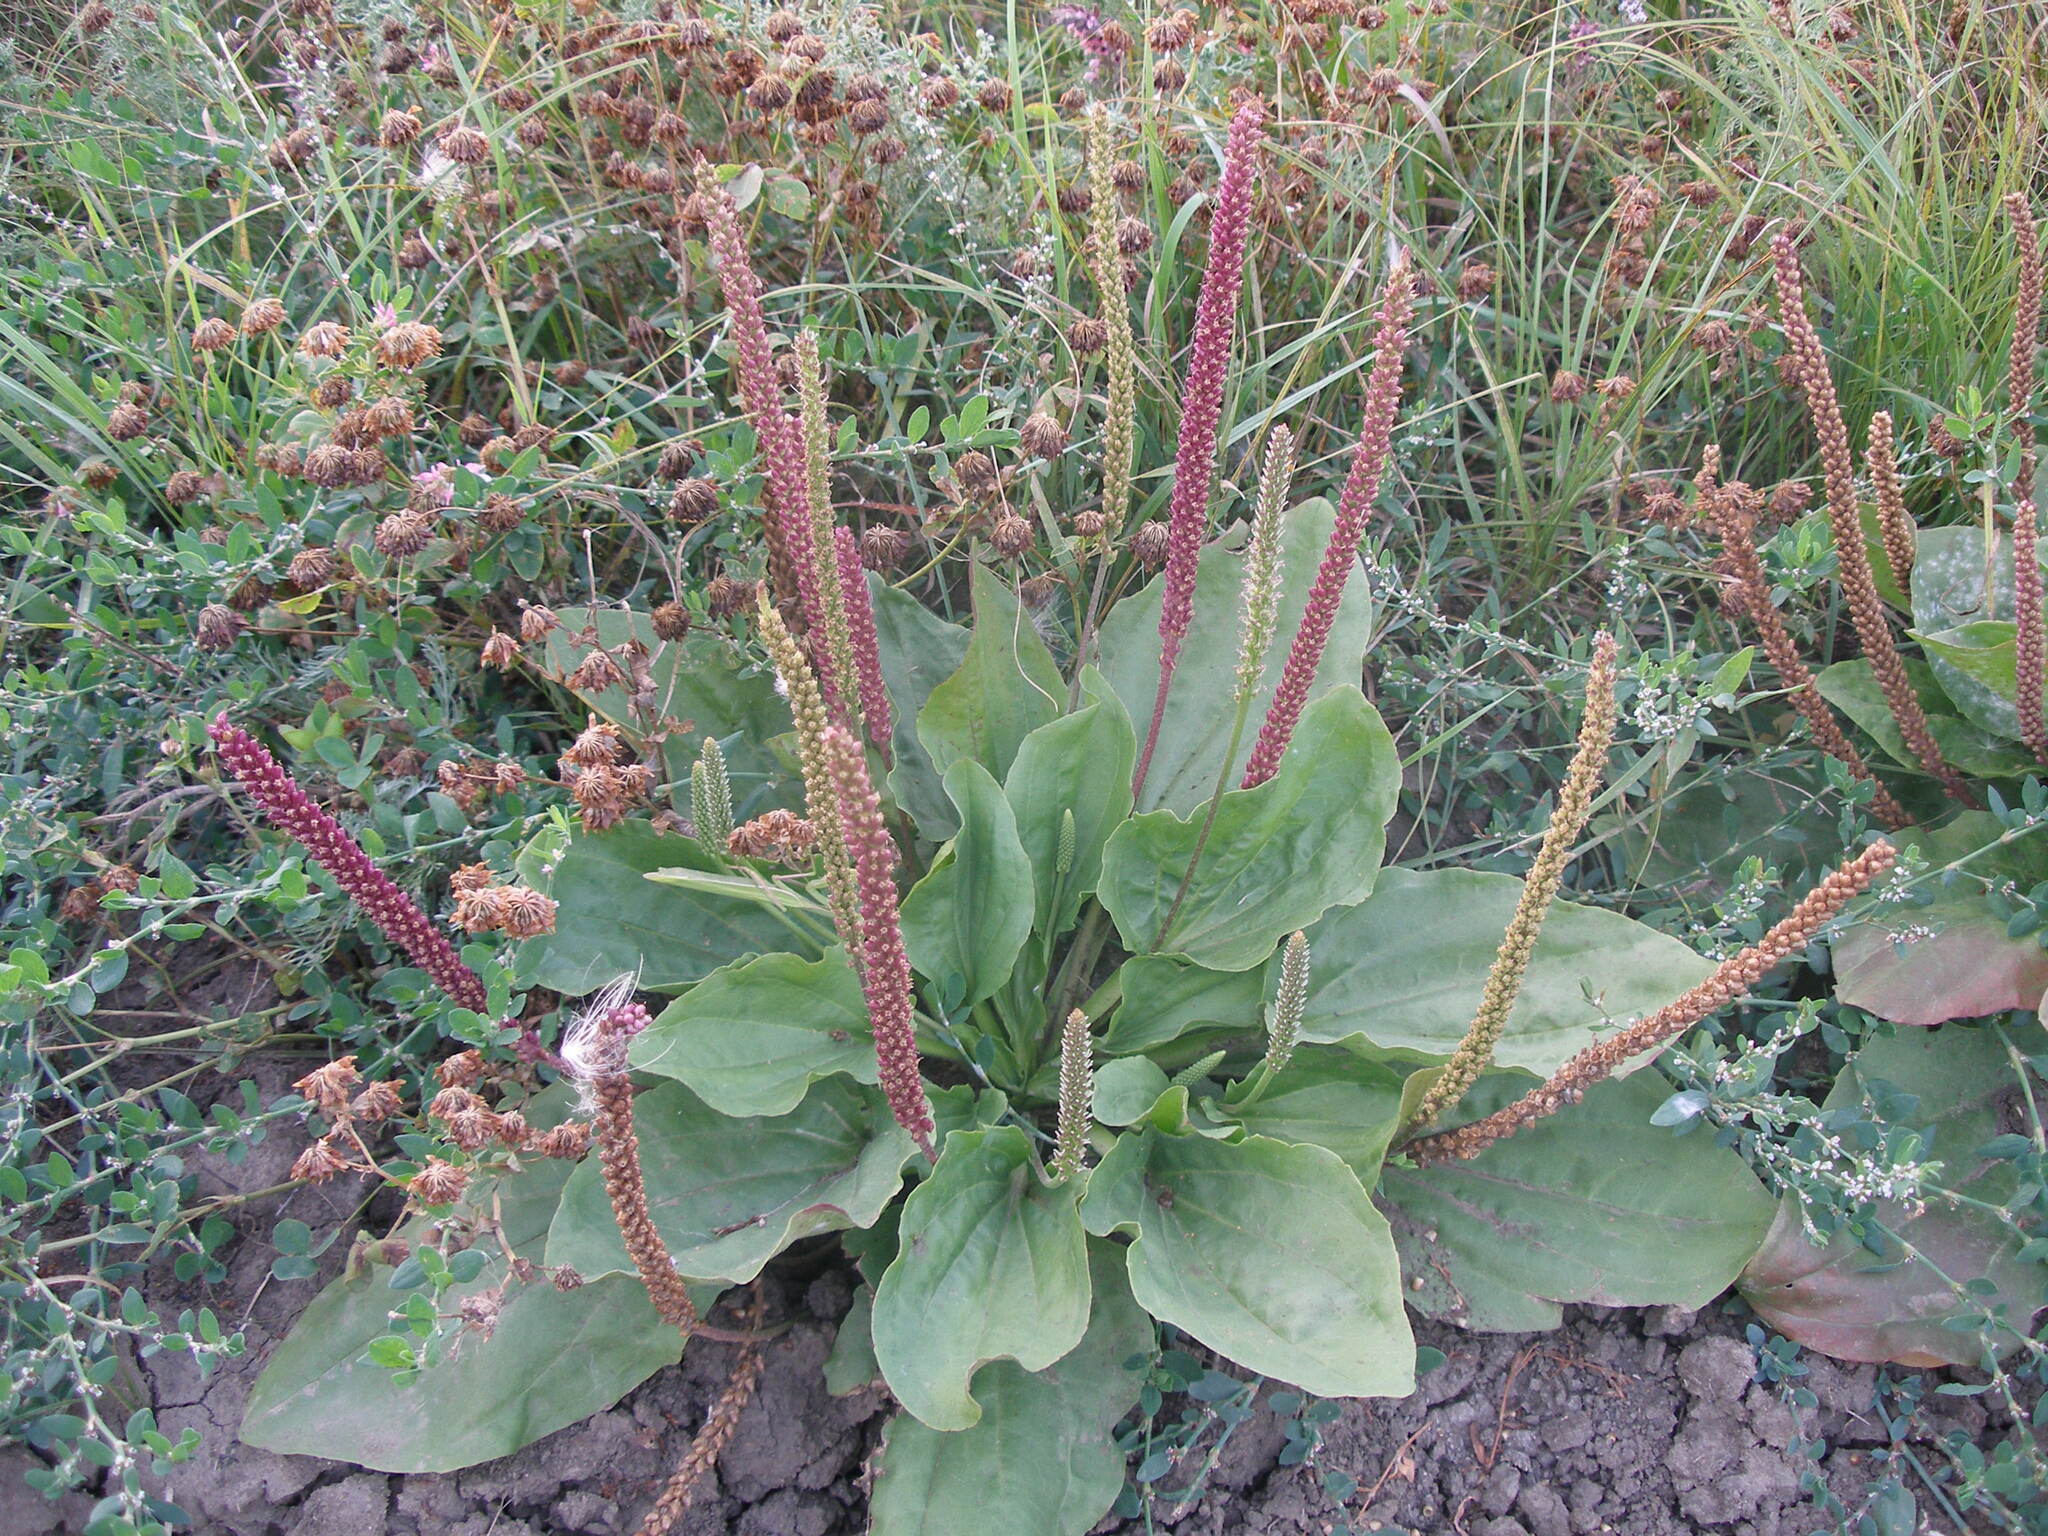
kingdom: Plantae
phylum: Tracheophyta
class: Magnoliopsida
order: Lamiales
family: Plantaginaceae
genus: Plantago
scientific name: Plantago major
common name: Common plantain
